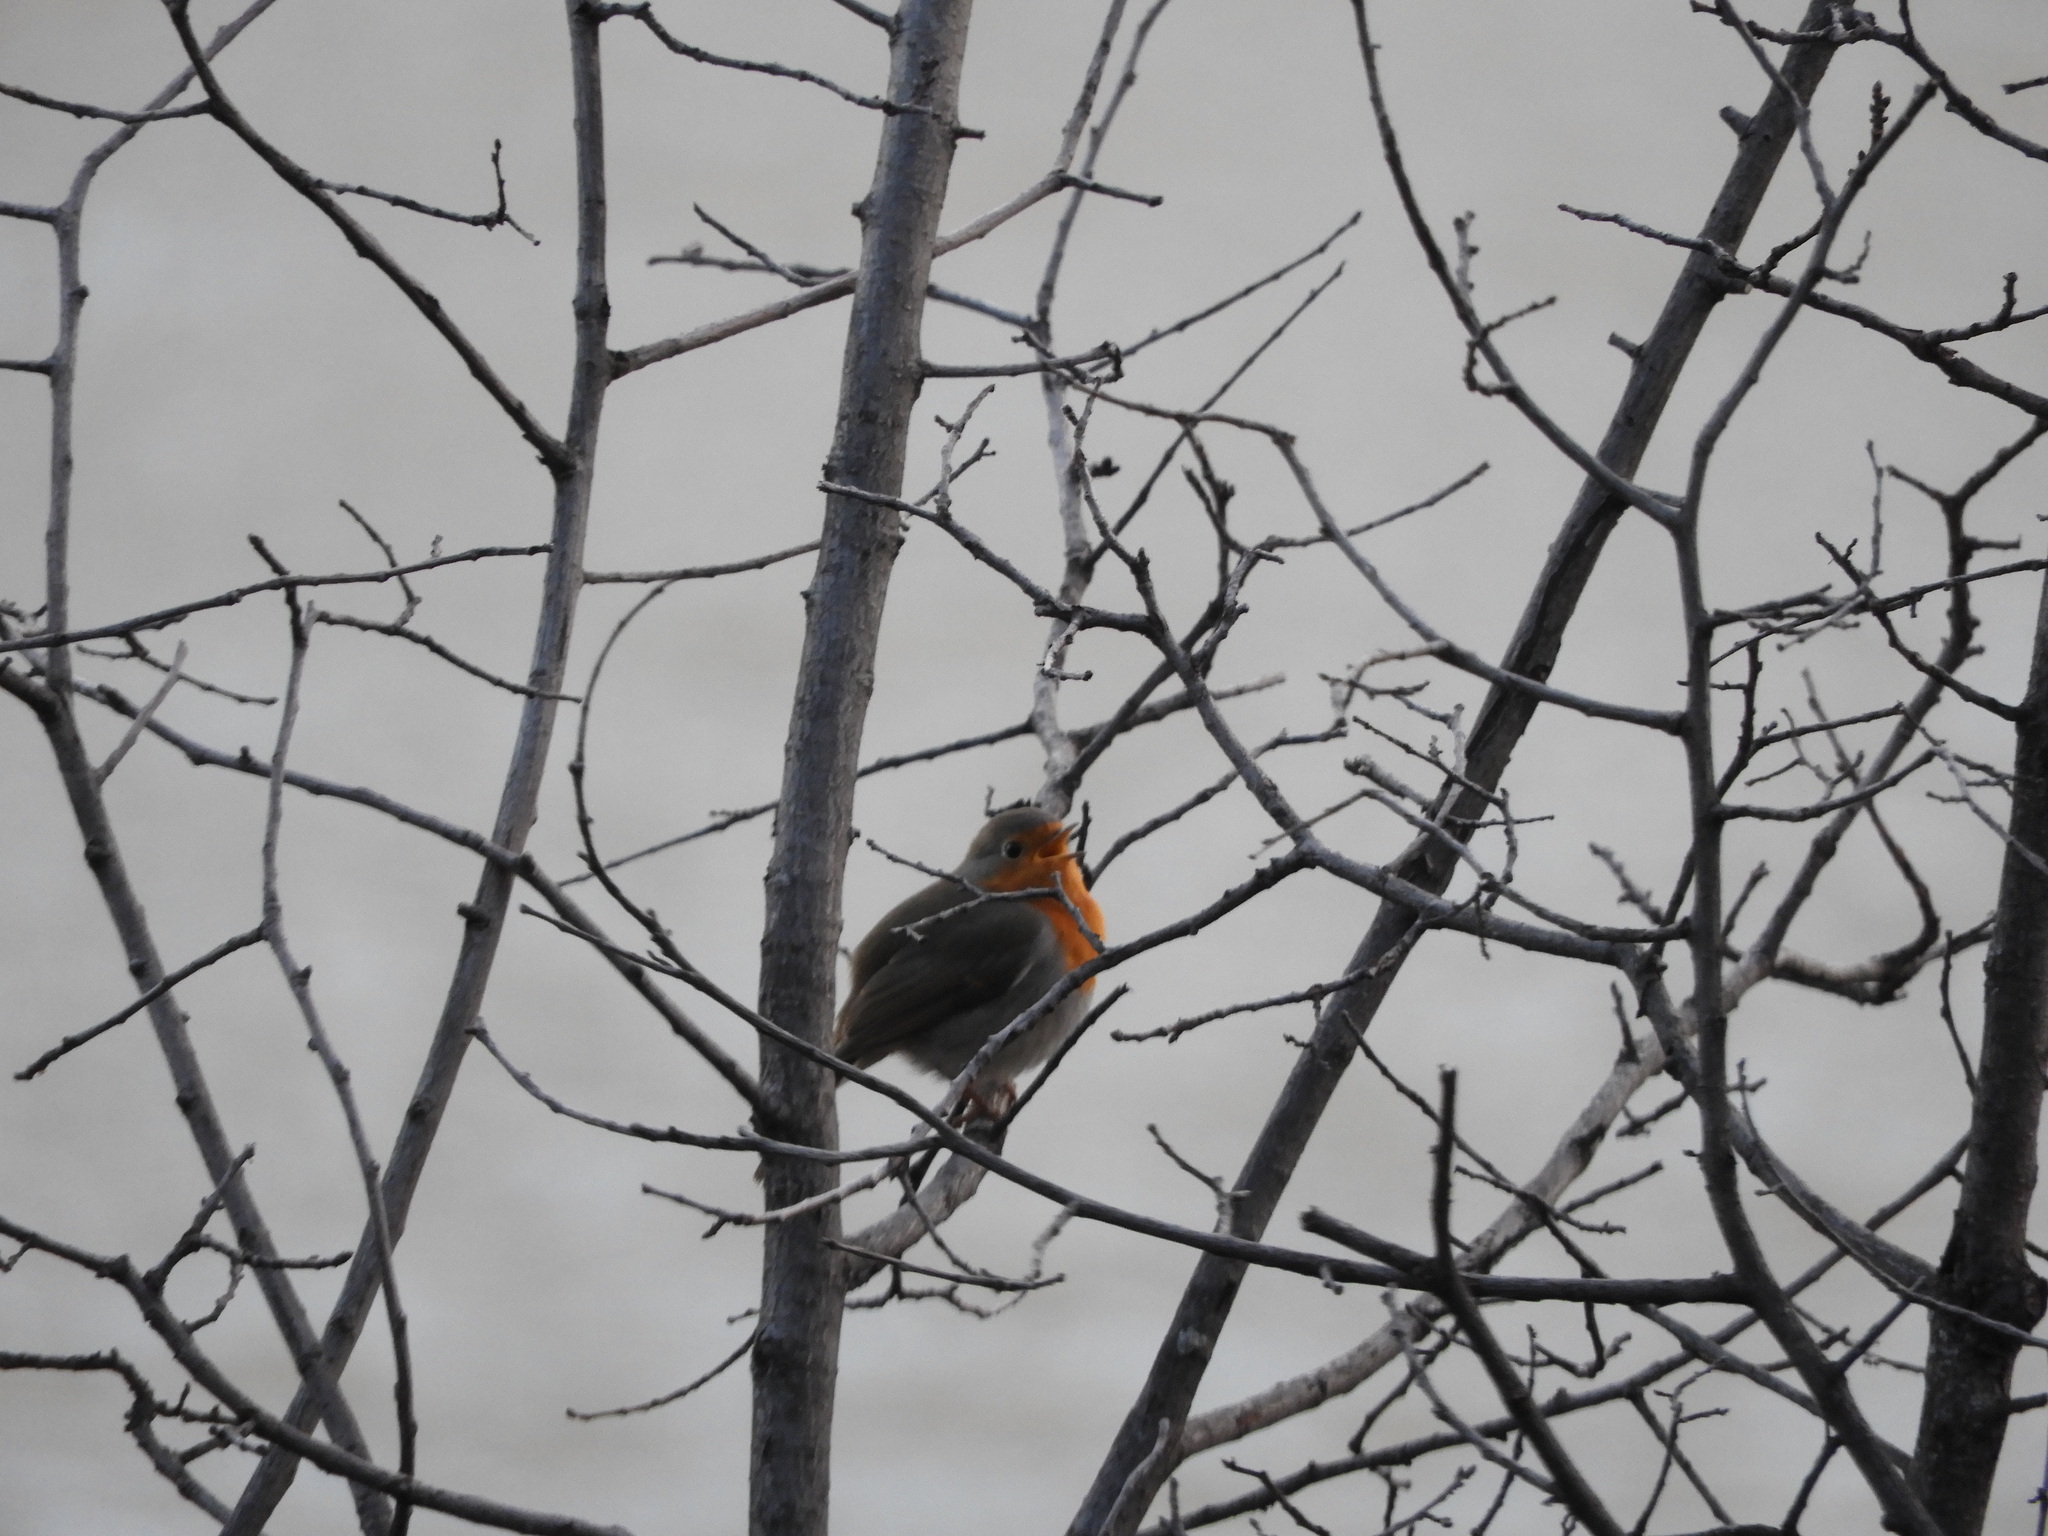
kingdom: Animalia
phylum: Chordata
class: Aves
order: Passeriformes
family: Muscicapidae
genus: Erithacus
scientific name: Erithacus rubecula
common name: European robin
